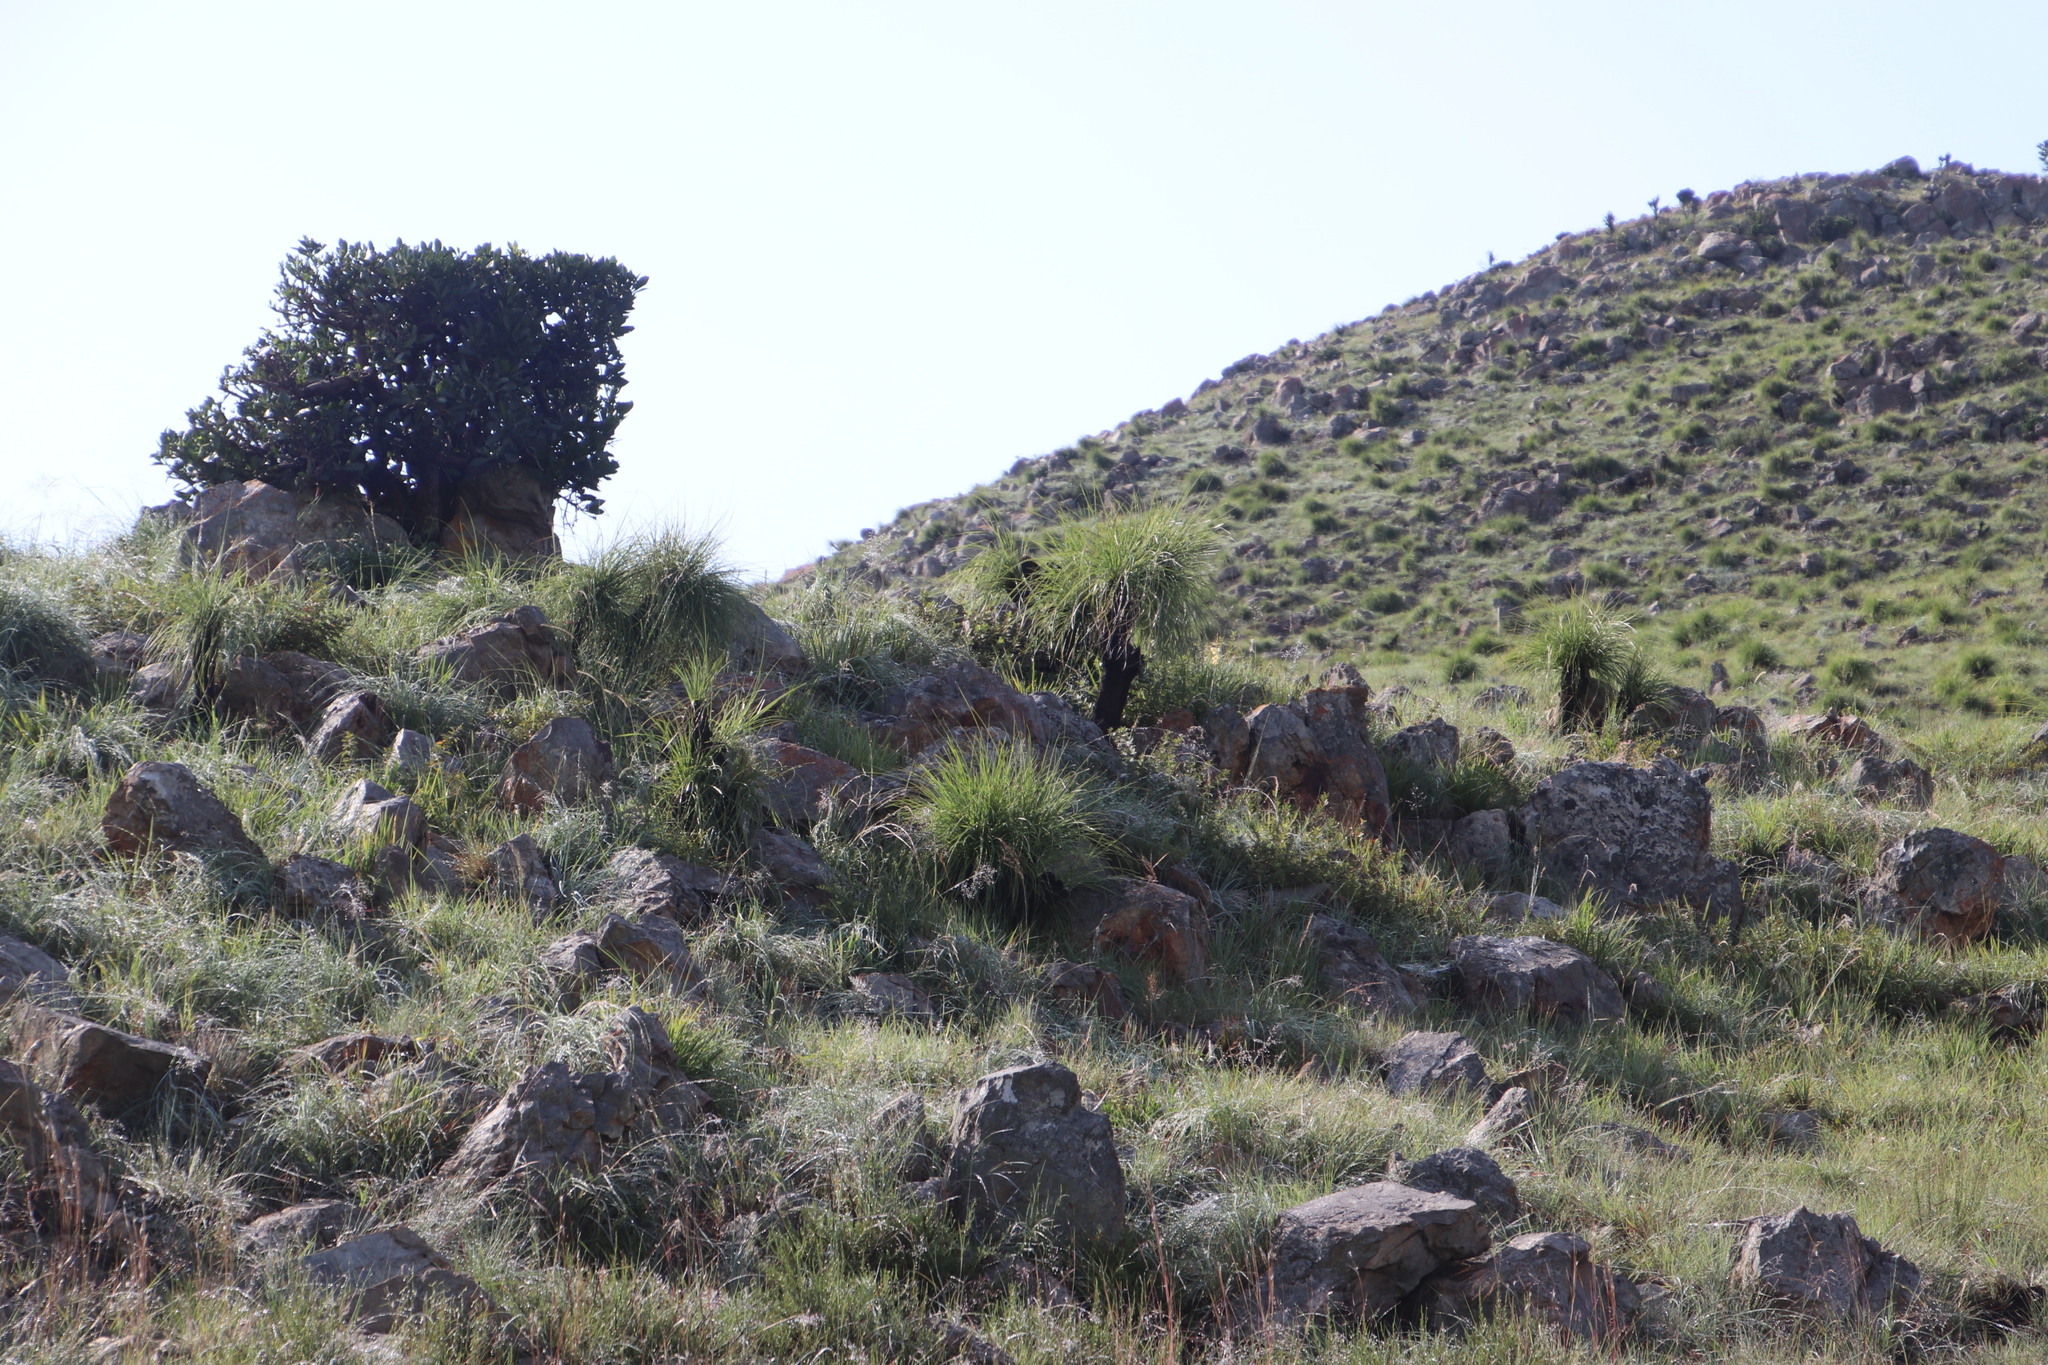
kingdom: Plantae
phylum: Tracheophyta
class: Liliopsida
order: Pandanales
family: Velloziaceae
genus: Xerophyta
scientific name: Xerophyta retinervis
